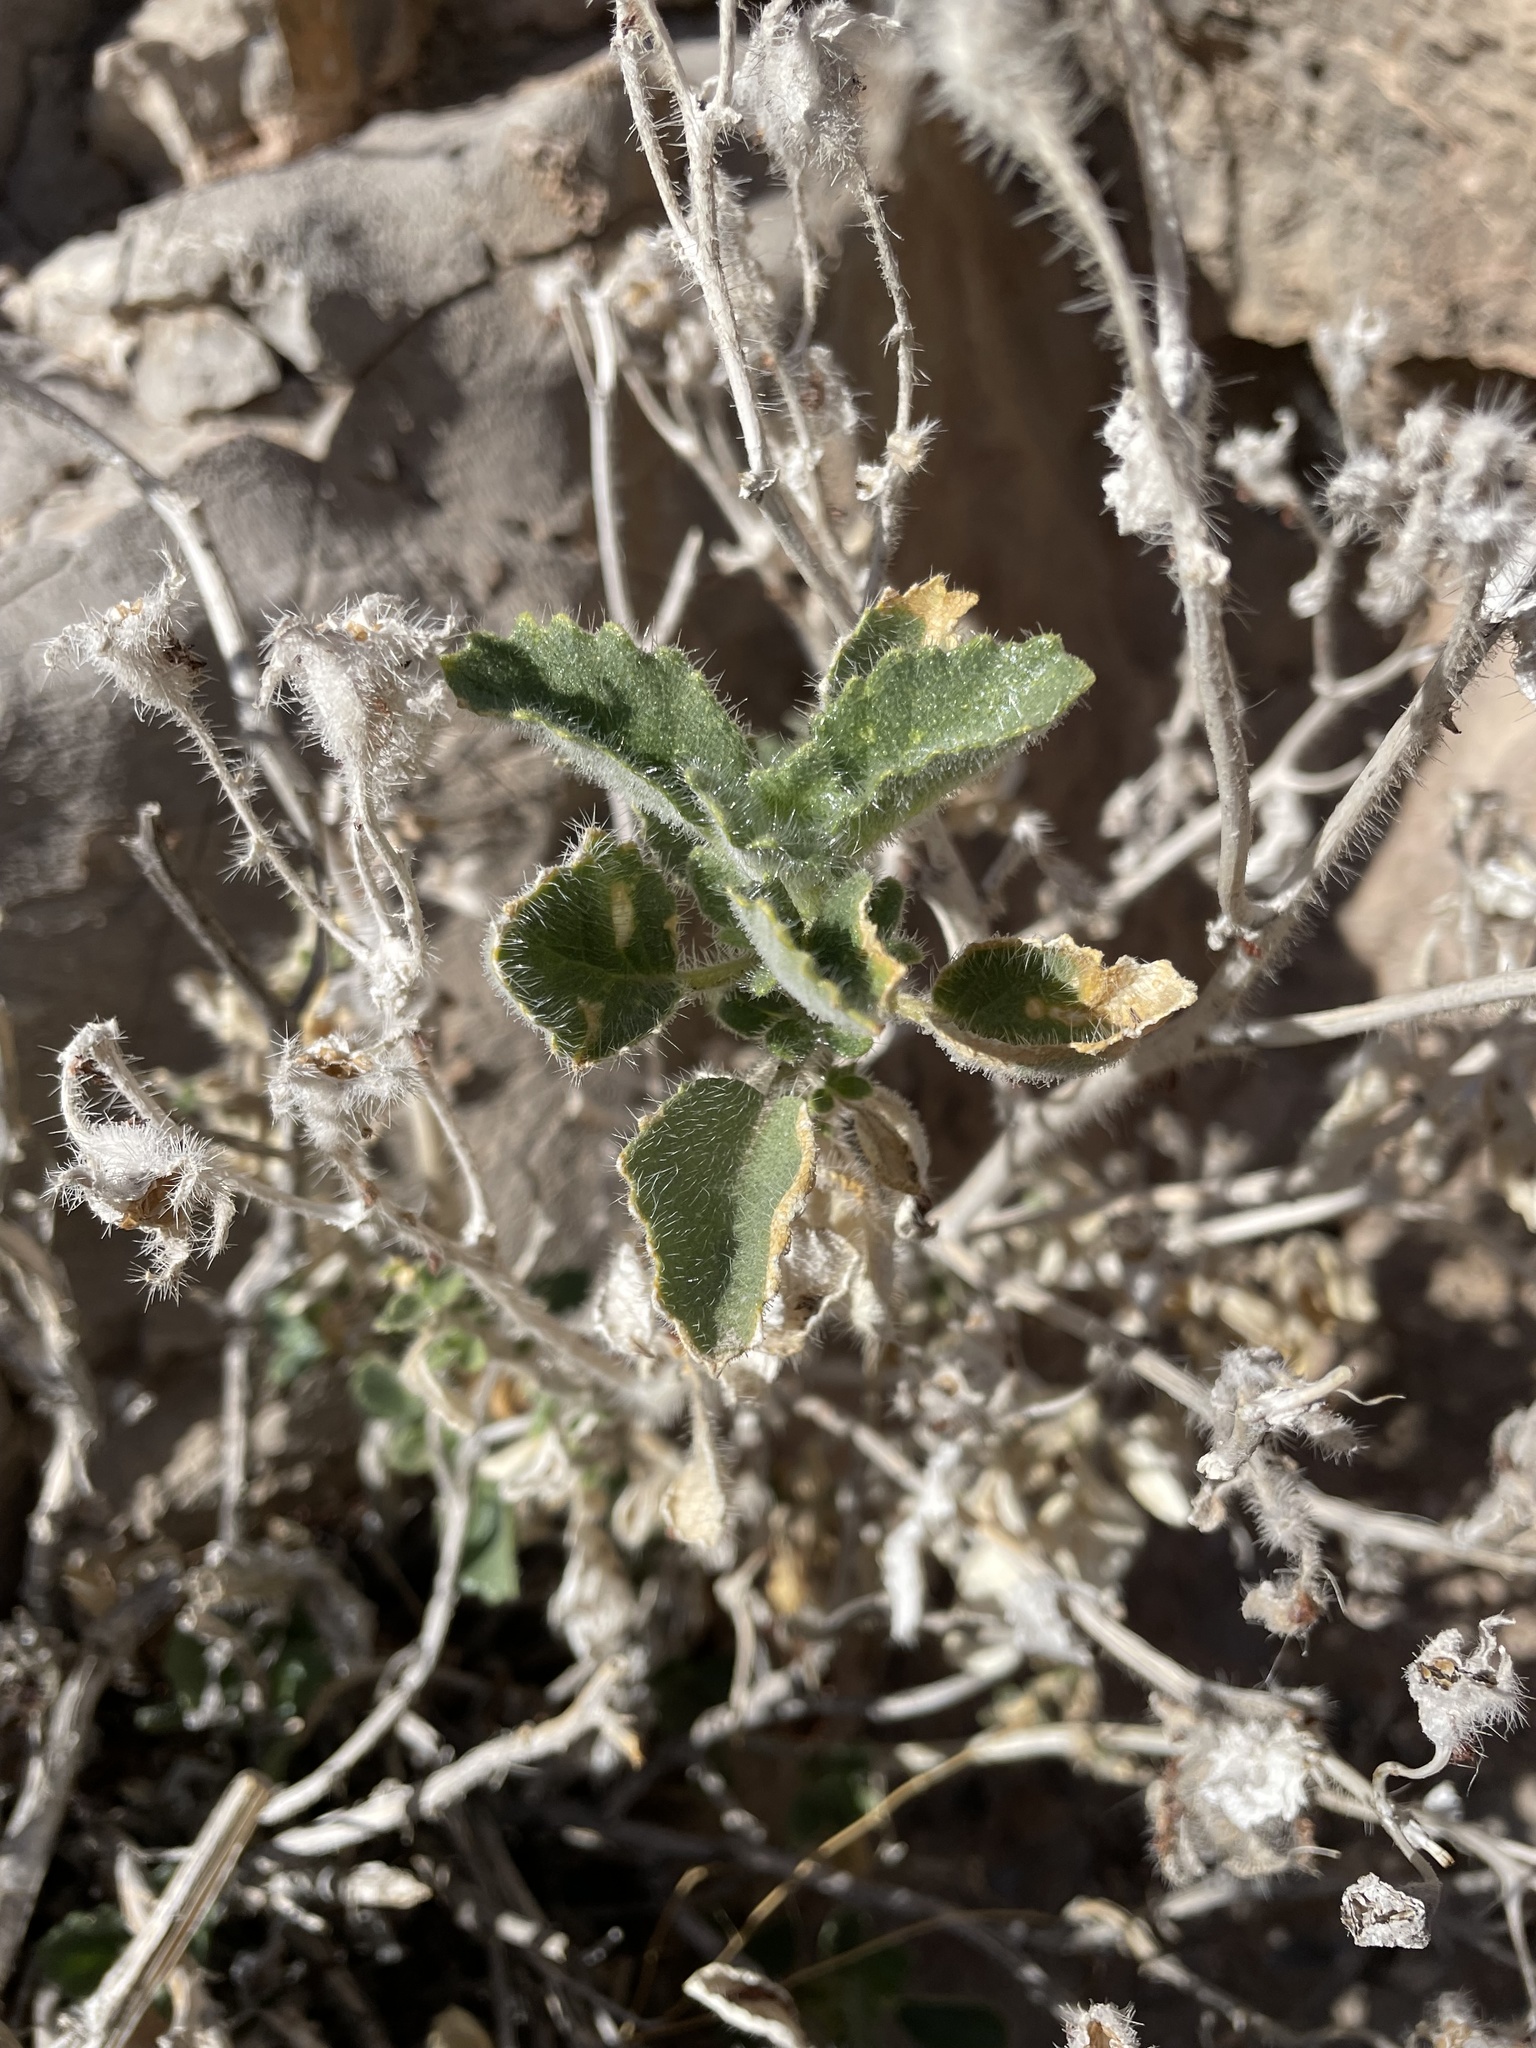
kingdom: Plantae
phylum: Tracheophyta
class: Magnoliopsida
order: Cornales
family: Loasaceae
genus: Eucnide
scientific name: Eucnide urens
